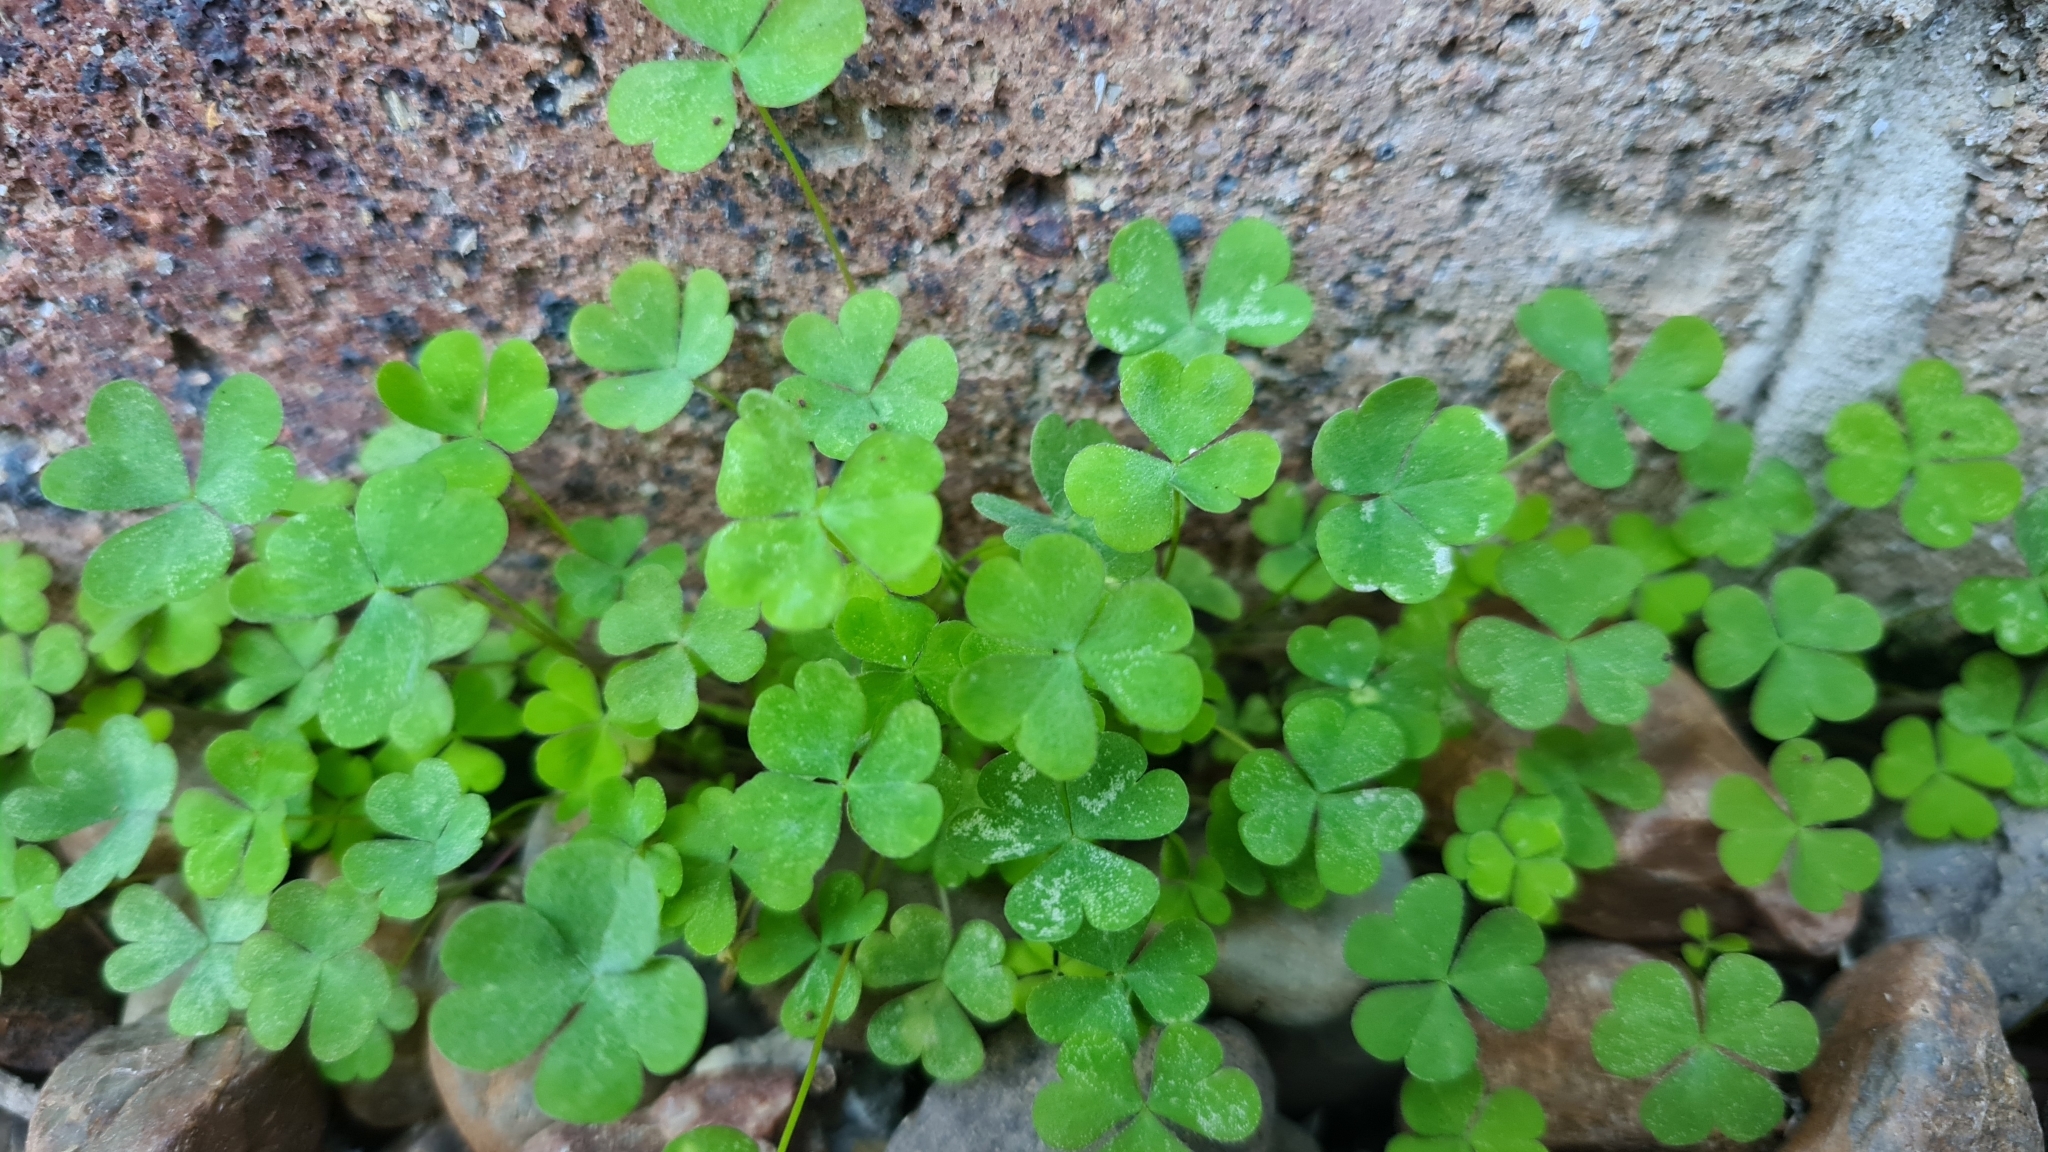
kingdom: Plantae
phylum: Tracheophyta
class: Magnoliopsida
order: Oxalidales
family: Oxalidaceae
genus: Oxalis
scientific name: Oxalis corniculata
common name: Procumbent yellow-sorrel
